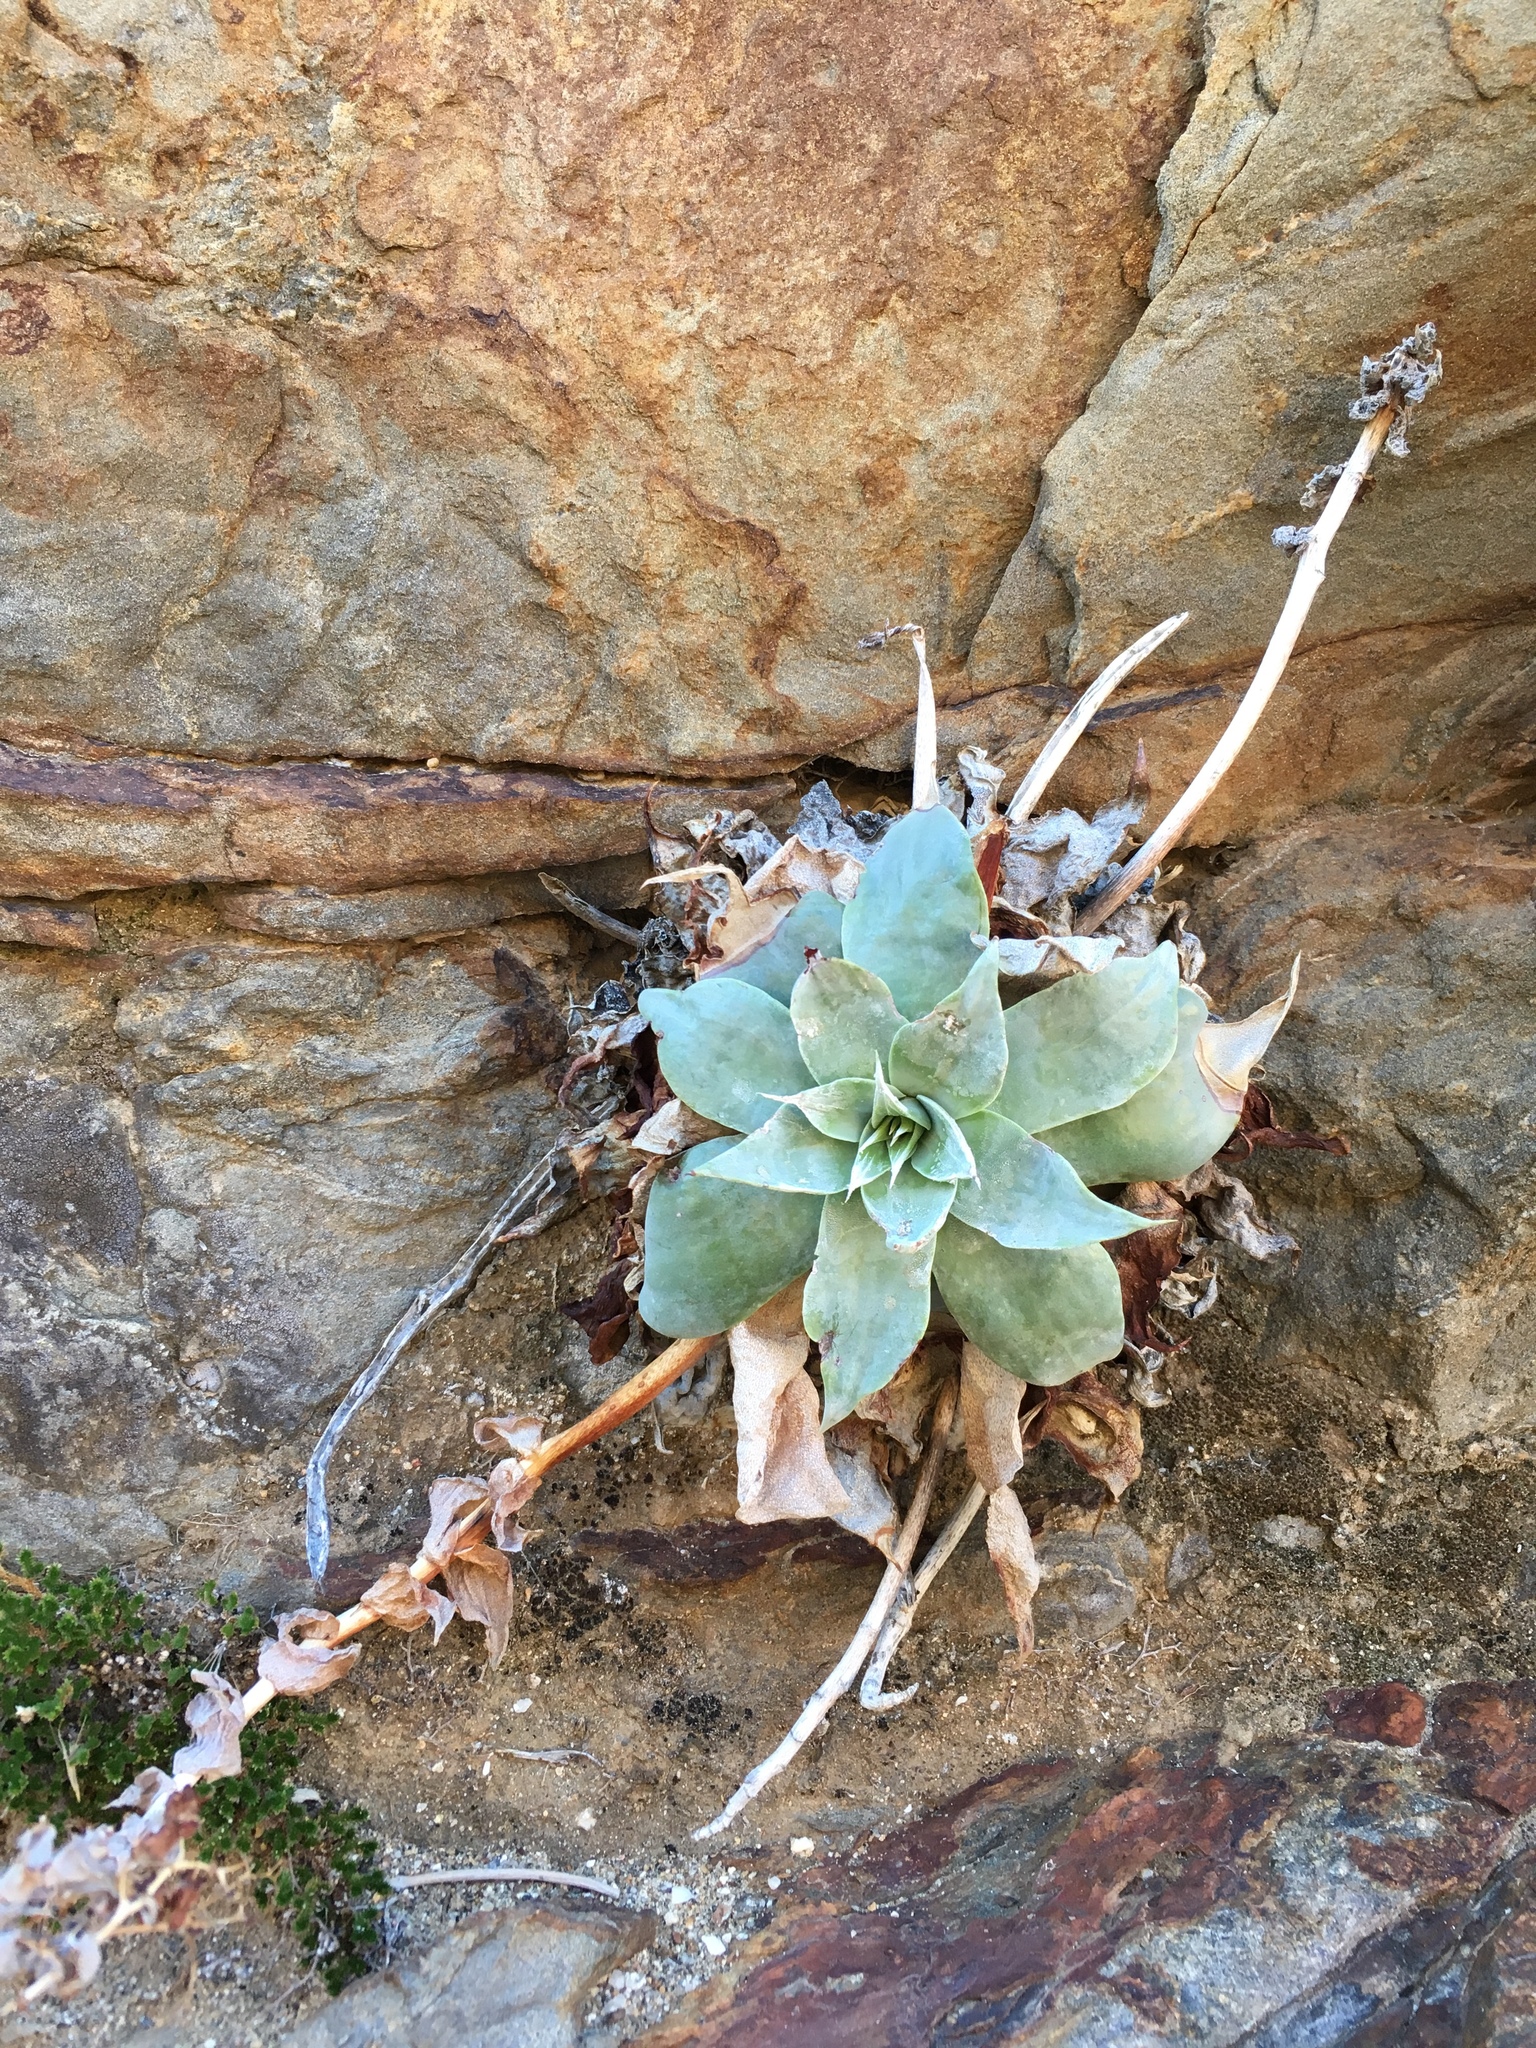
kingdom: Plantae
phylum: Tracheophyta
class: Magnoliopsida
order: Saxifragales
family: Crassulaceae
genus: Dudleya
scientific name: Dudleya arizonica
